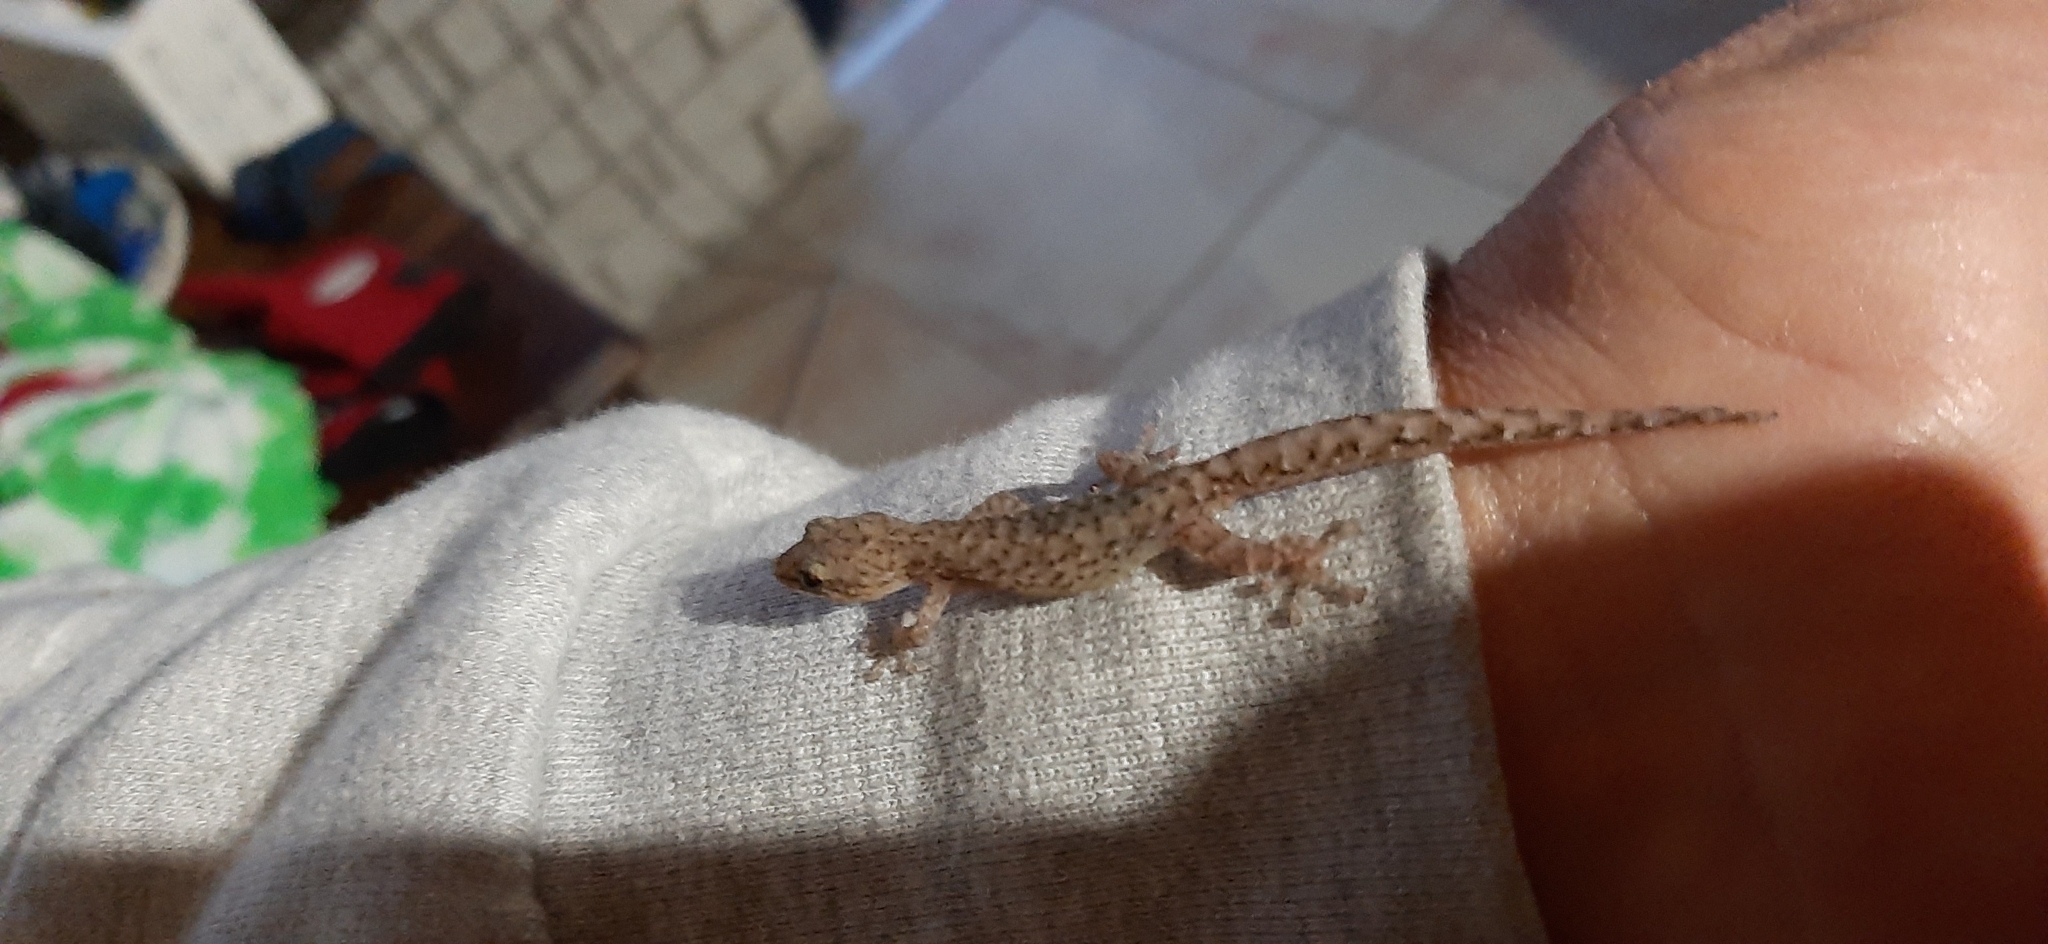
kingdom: Animalia
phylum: Chordata
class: Squamata
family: Gekkonidae
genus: Afrogecko
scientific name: Afrogecko porphyreus
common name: Marbled leaf-toed gecko
